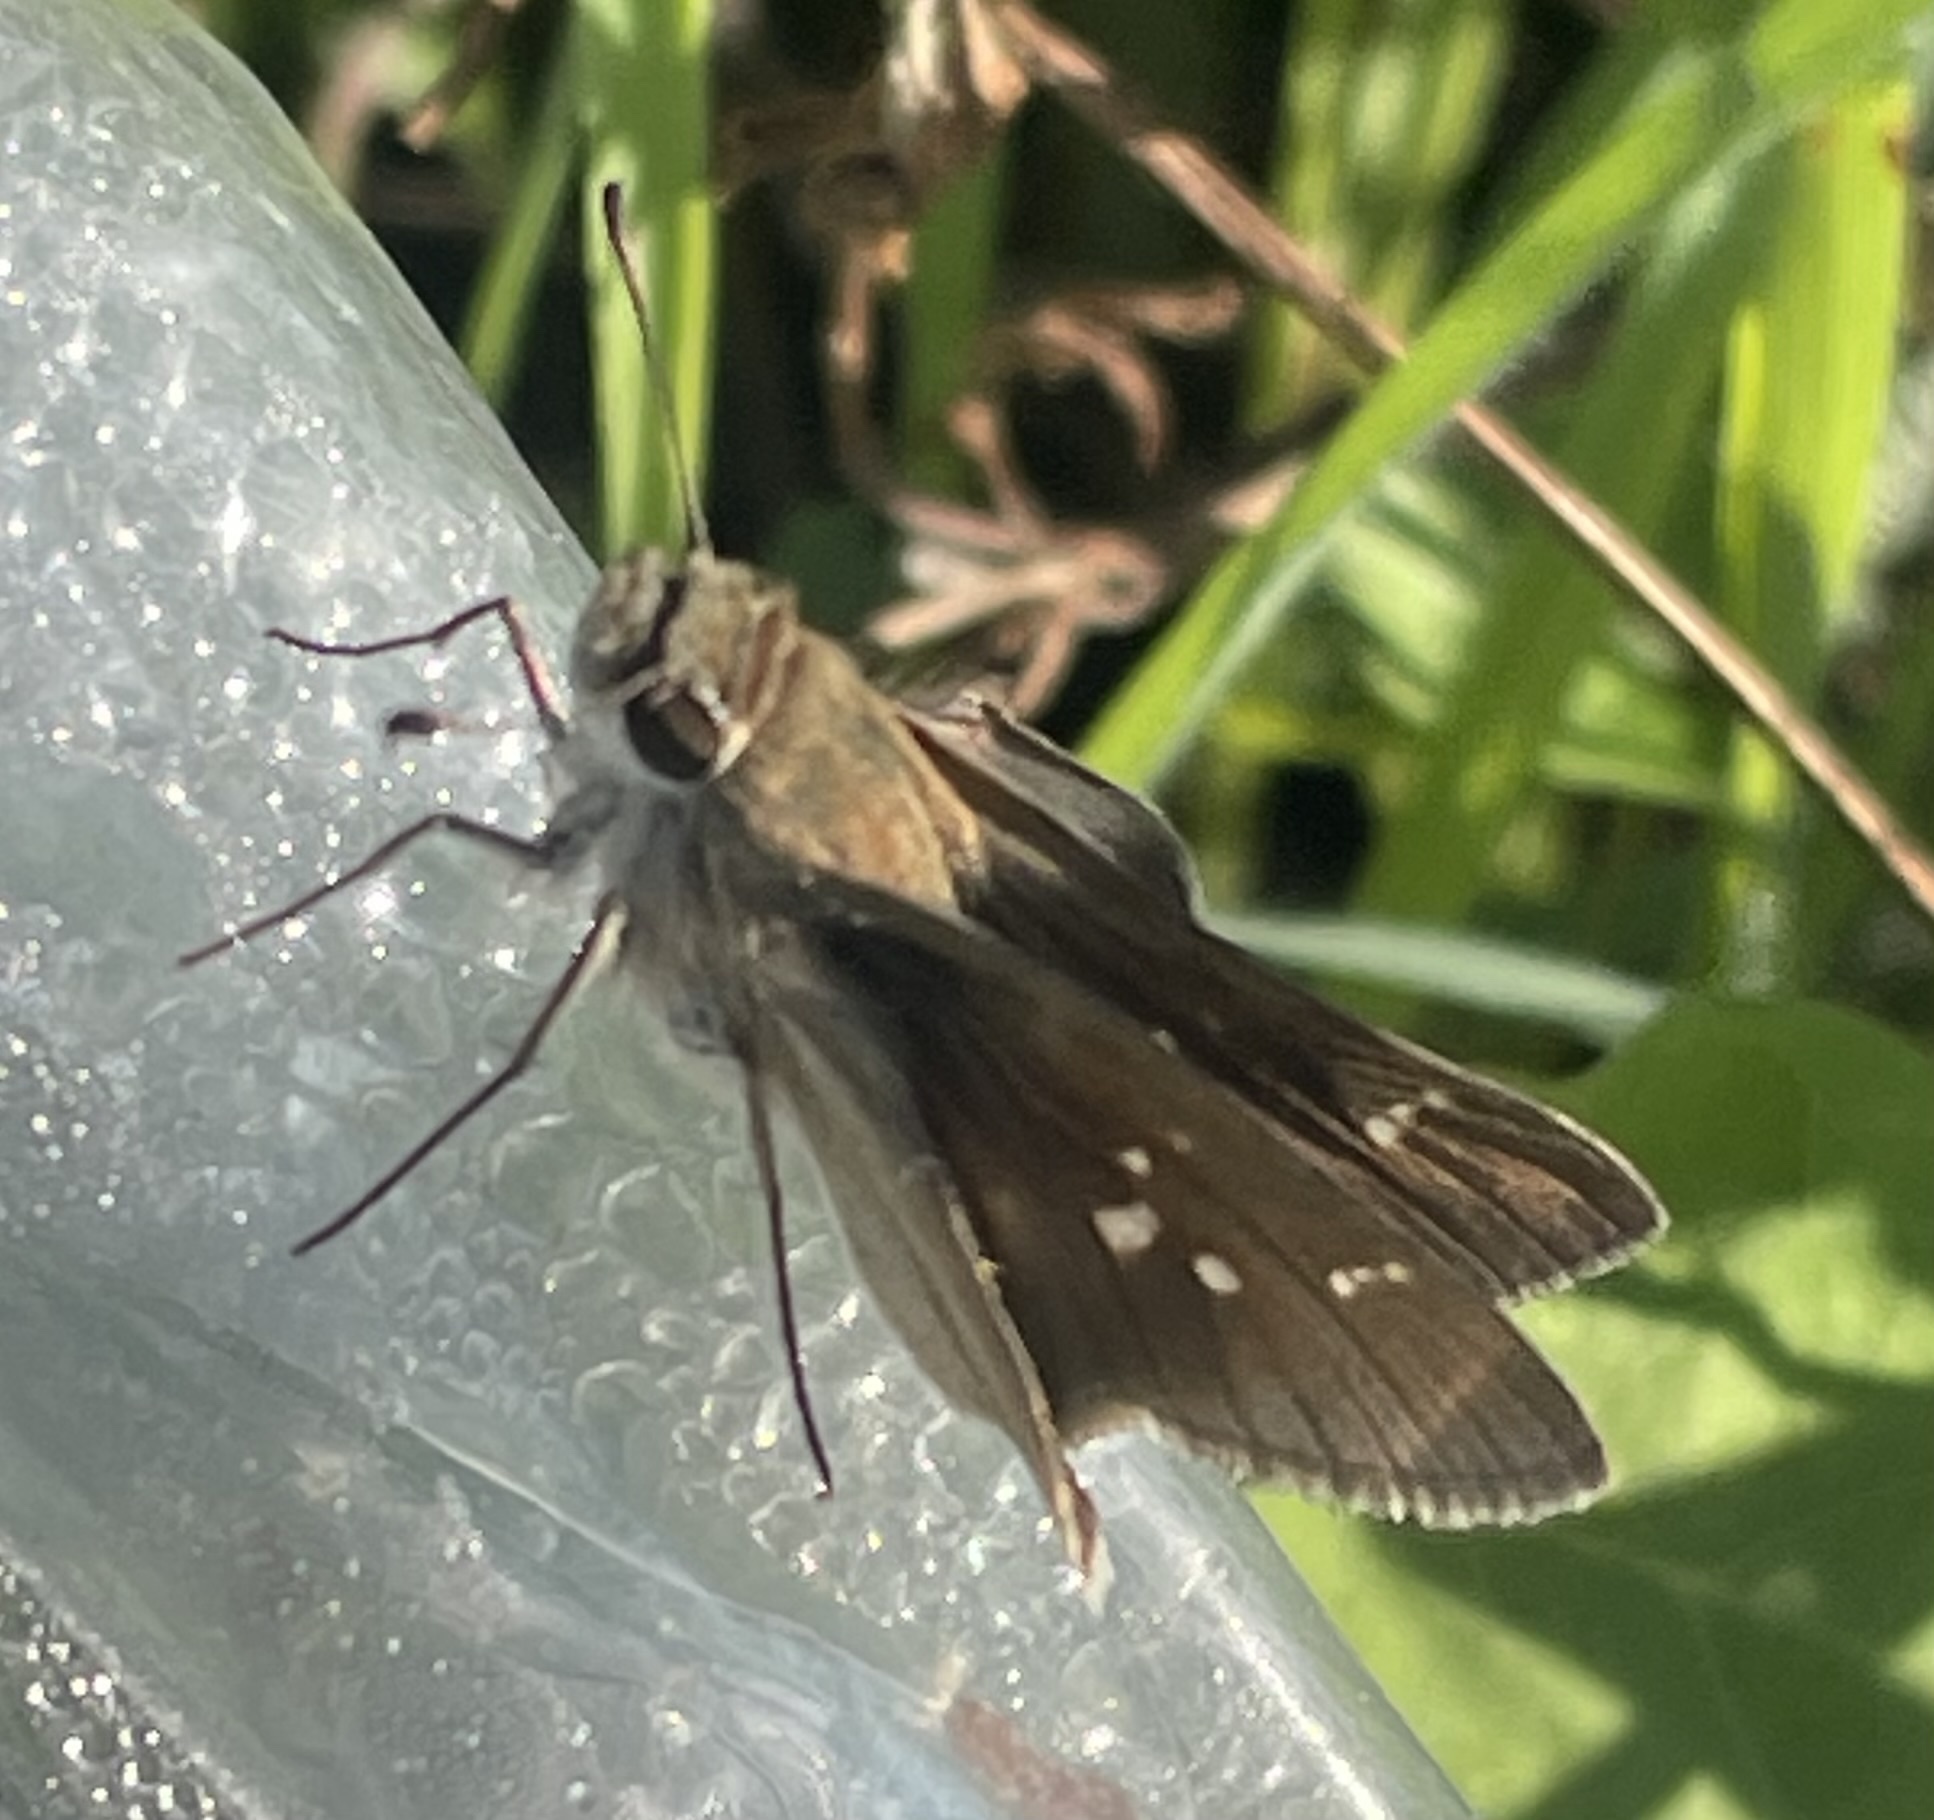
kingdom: Animalia
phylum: Arthropoda
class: Insecta
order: Lepidoptera
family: Hesperiidae
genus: Lerodea
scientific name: Lerodea eufala
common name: Eufala skipper
